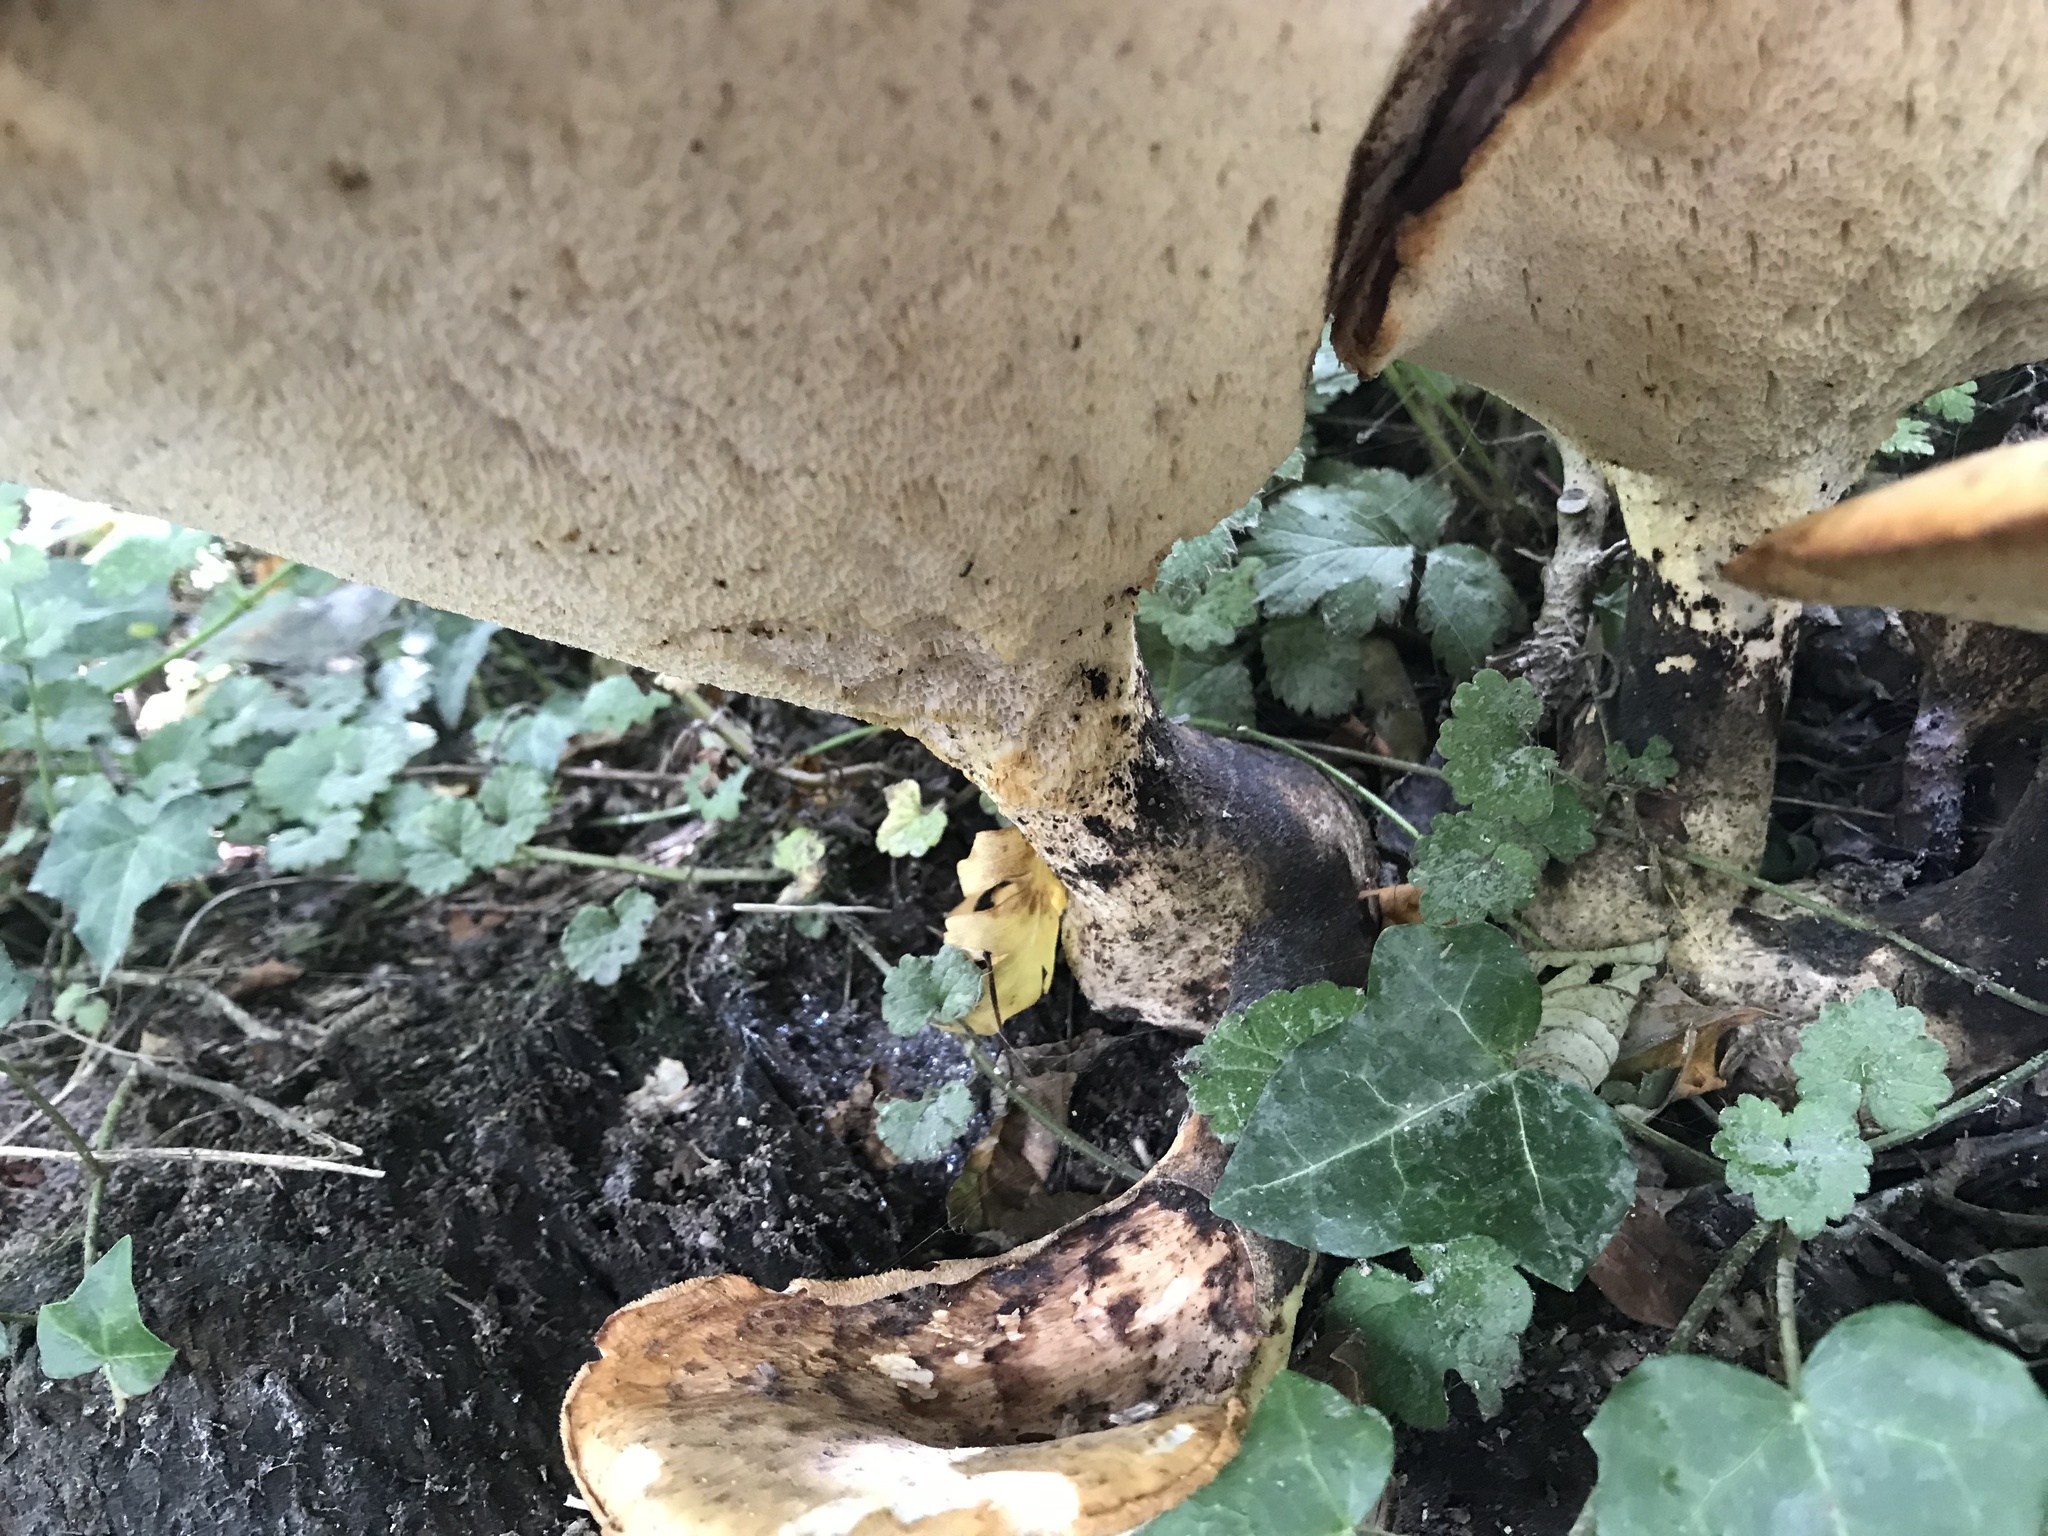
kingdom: Fungi
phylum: Basidiomycota
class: Agaricomycetes
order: Polyporales
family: Polyporaceae
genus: Cerioporus
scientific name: Cerioporus squamosus
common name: Dryad's saddle
